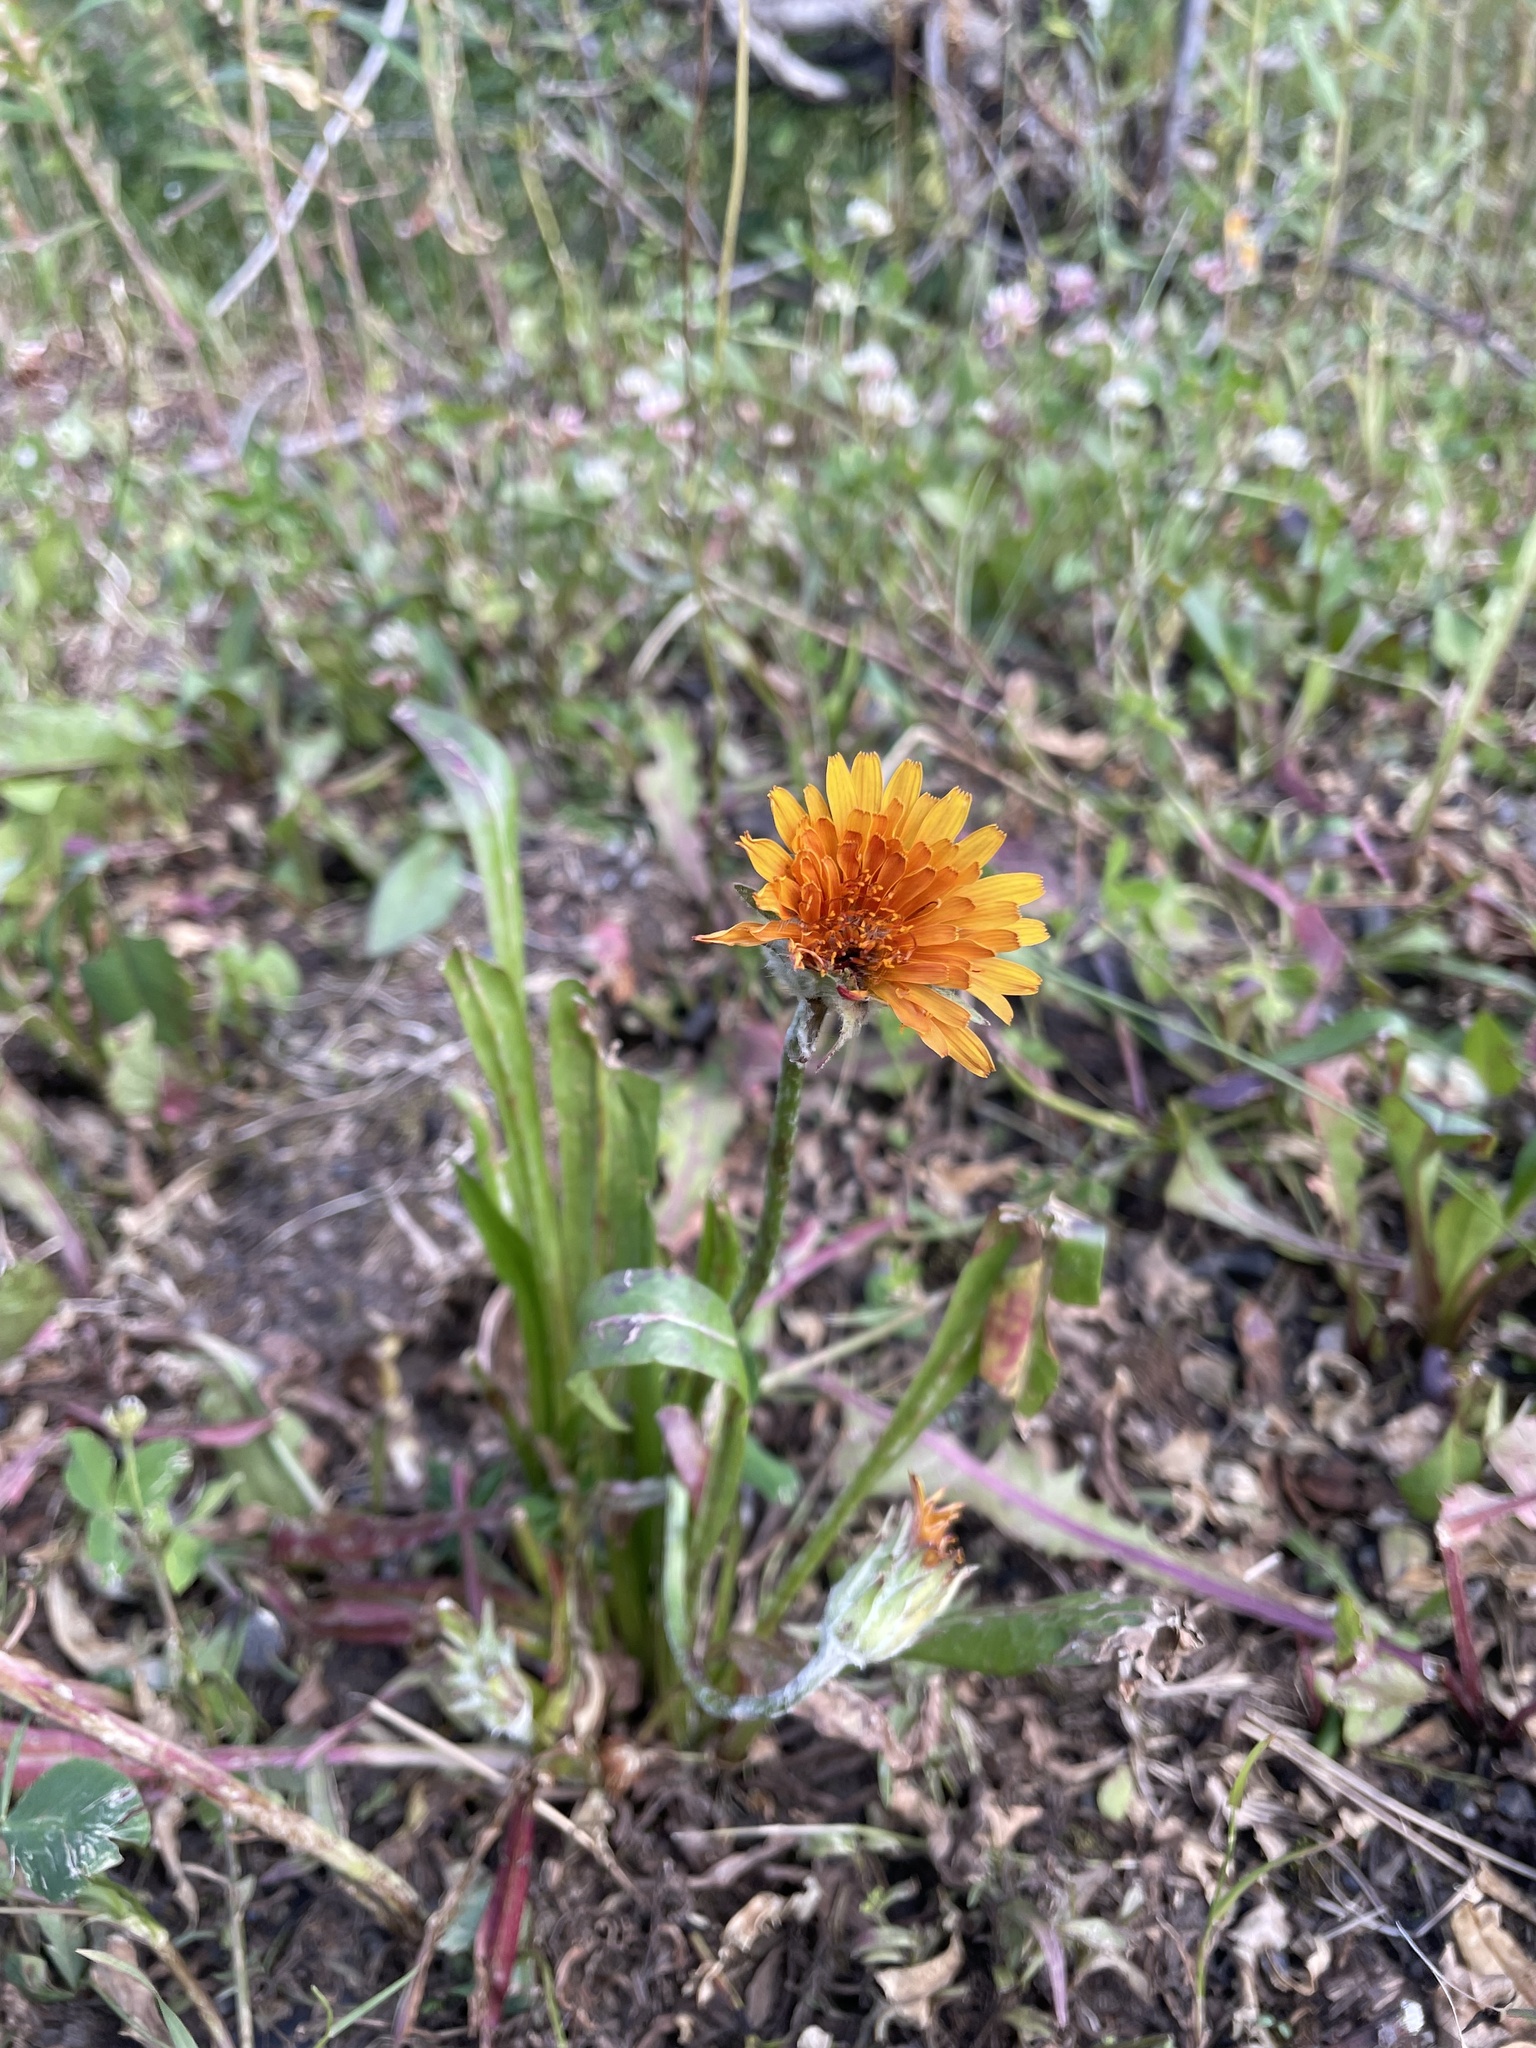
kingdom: Plantae
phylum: Tracheophyta
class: Magnoliopsida
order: Asterales
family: Asteraceae
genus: Agoseris
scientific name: Agoseris aurantiaca
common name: Mountain agoseris
